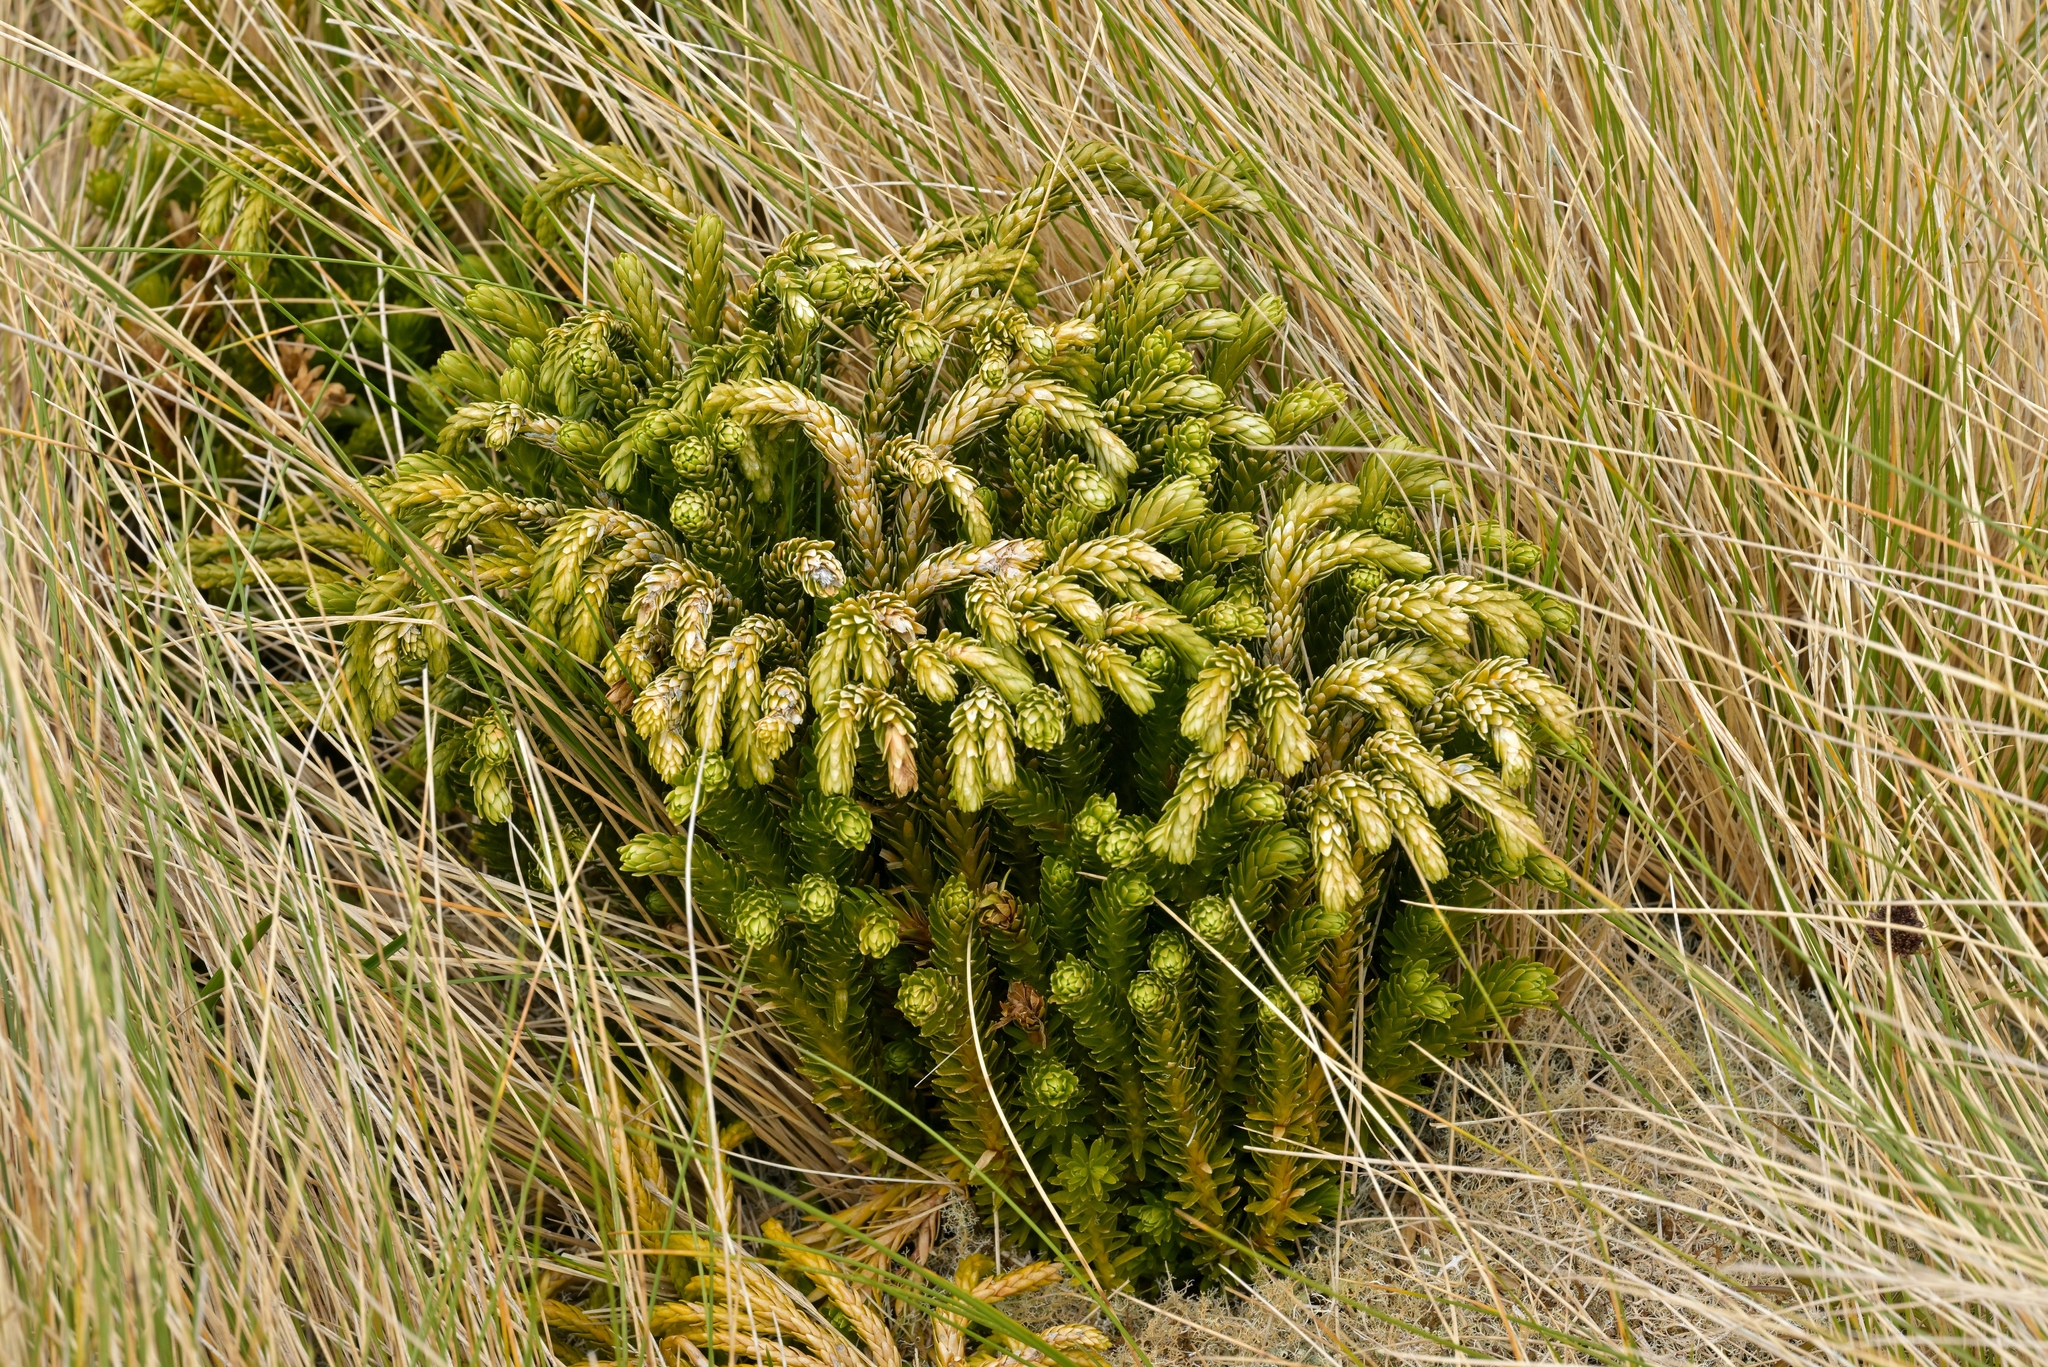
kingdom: Plantae
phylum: Tracheophyta
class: Lycopodiopsida
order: Lycopodiales
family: Lycopodiaceae
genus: Phlegmariurus
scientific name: Phlegmariurus varius
